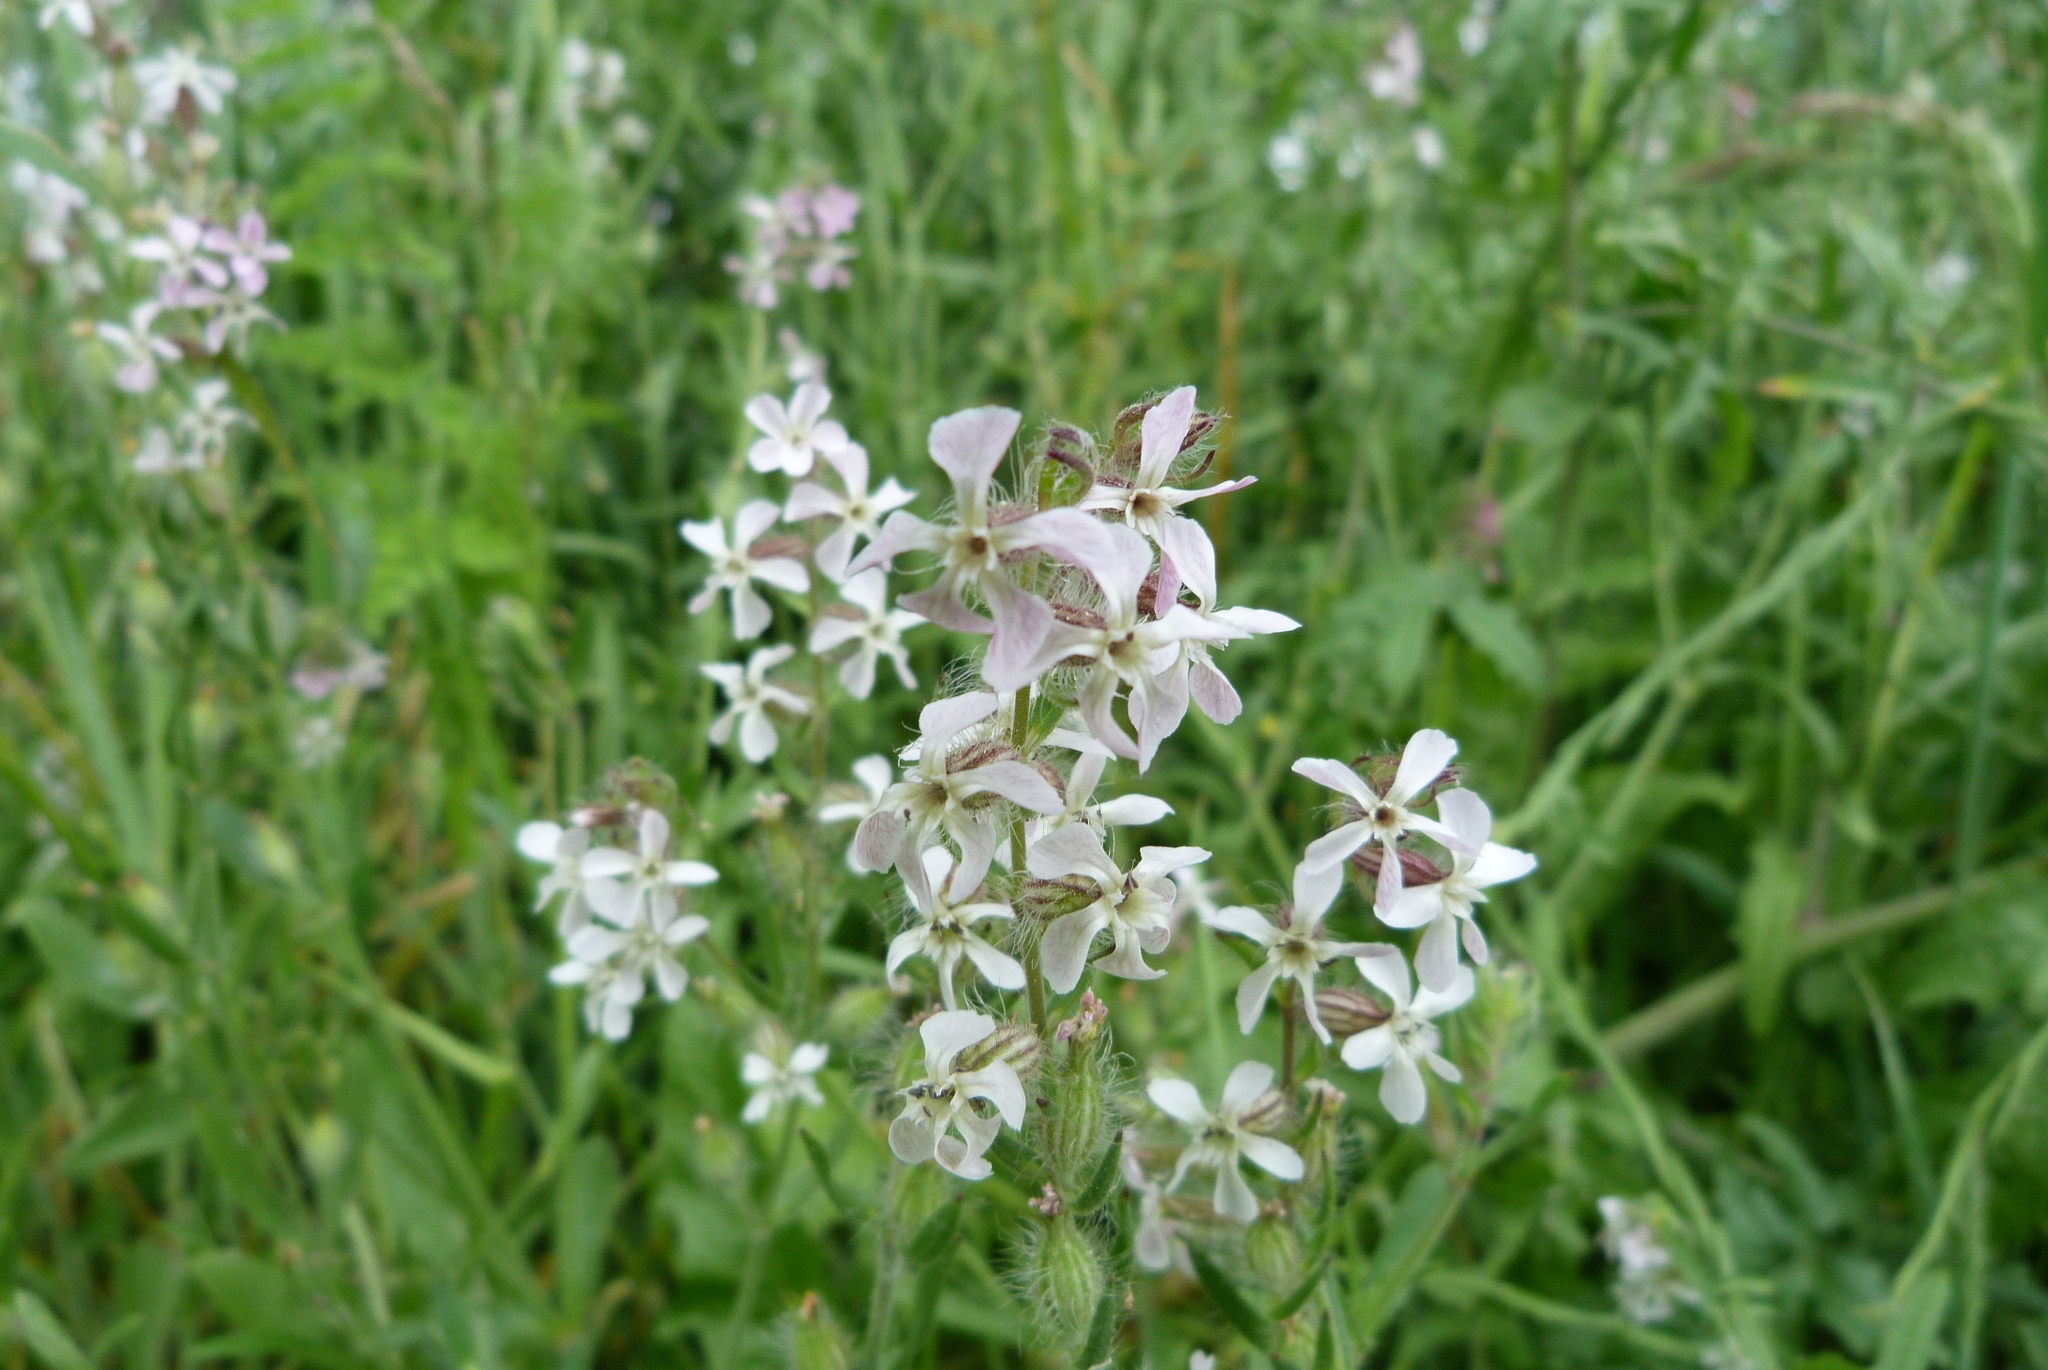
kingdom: Plantae
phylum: Tracheophyta
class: Magnoliopsida
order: Caryophyllales
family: Caryophyllaceae
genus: Silene
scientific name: Silene gallica
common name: Small-flowered catchfly
